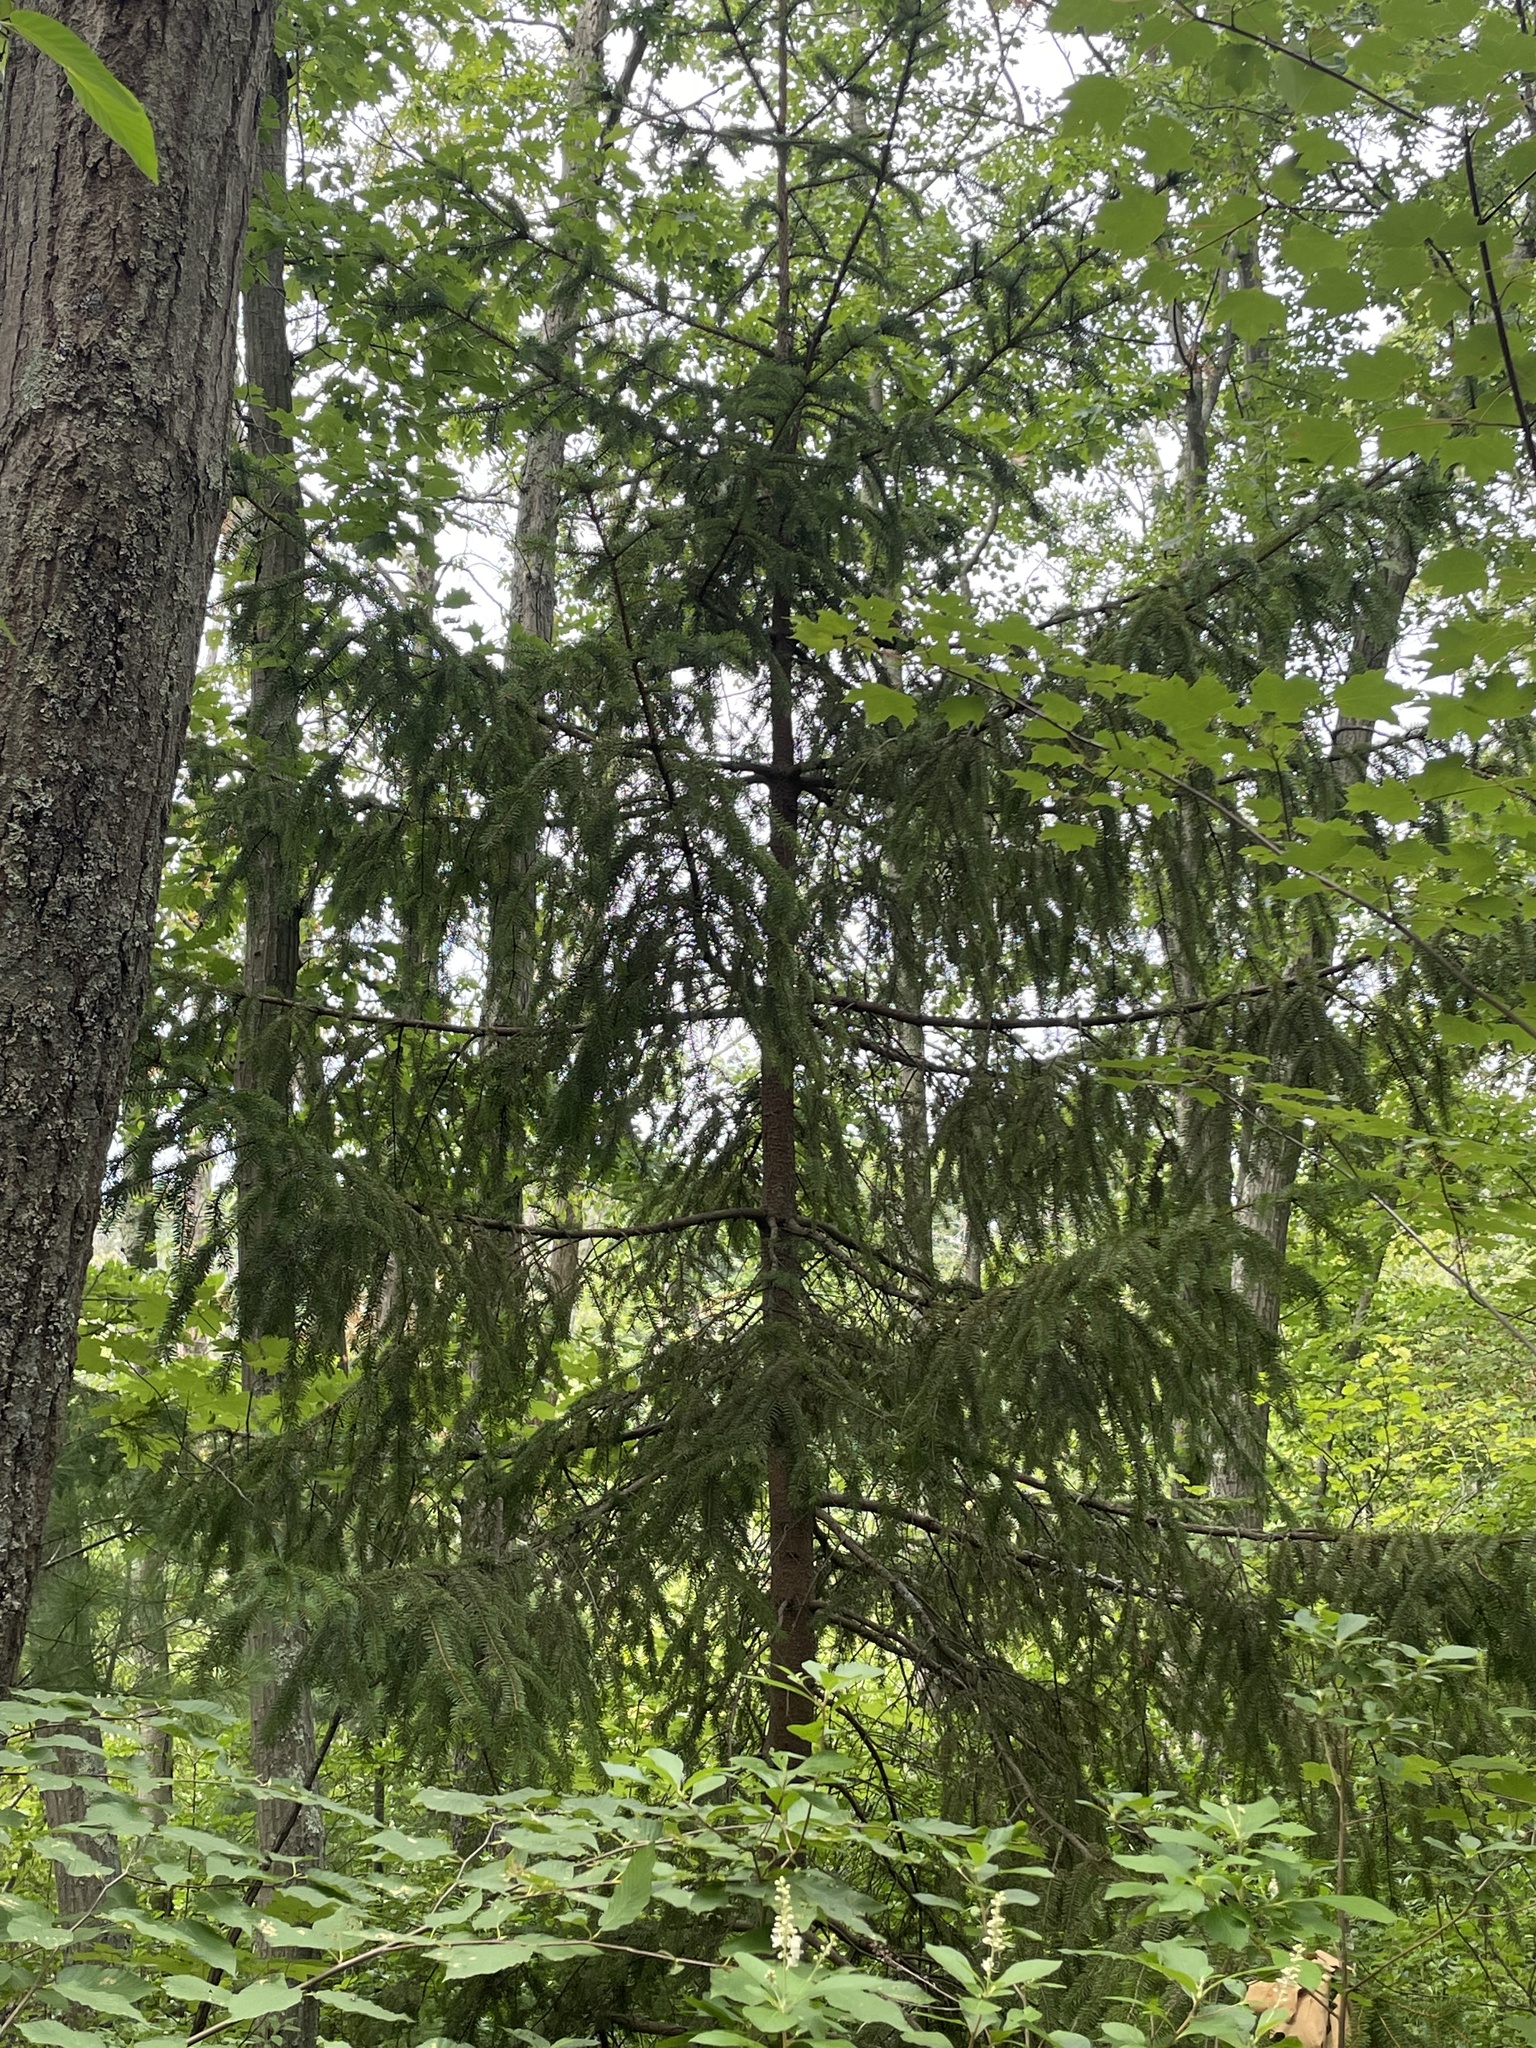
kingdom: Plantae
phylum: Tracheophyta
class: Pinopsida
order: Pinales
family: Pinaceae
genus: Picea
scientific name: Picea abies
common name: Norway spruce
